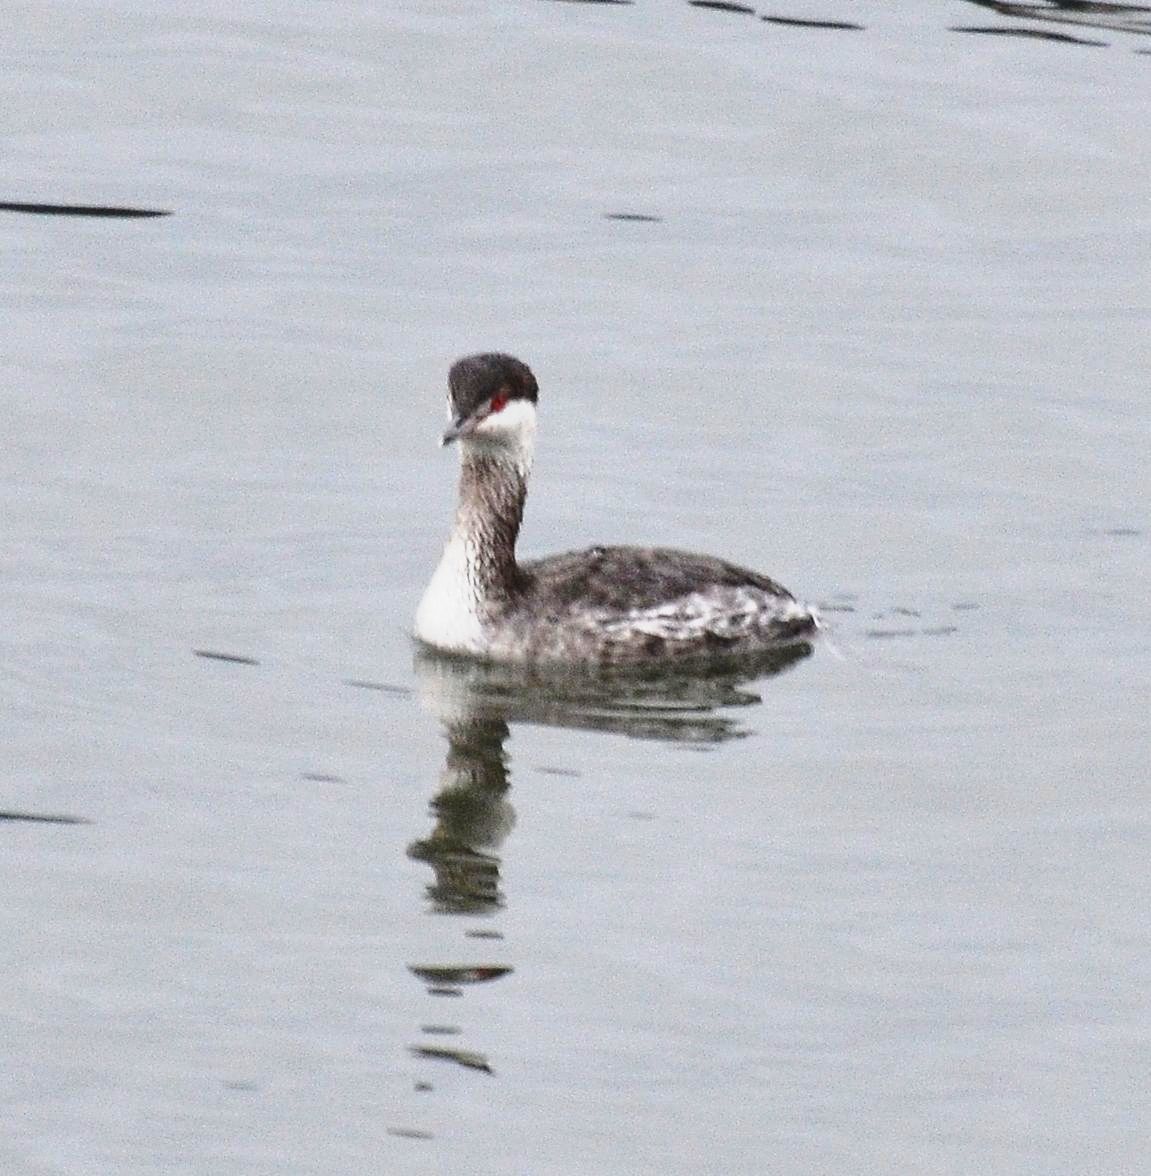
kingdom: Animalia
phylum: Chordata
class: Aves
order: Podicipediformes
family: Podicipedidae
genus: Podiceps
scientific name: Podiceps auritus
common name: Horned grebe
